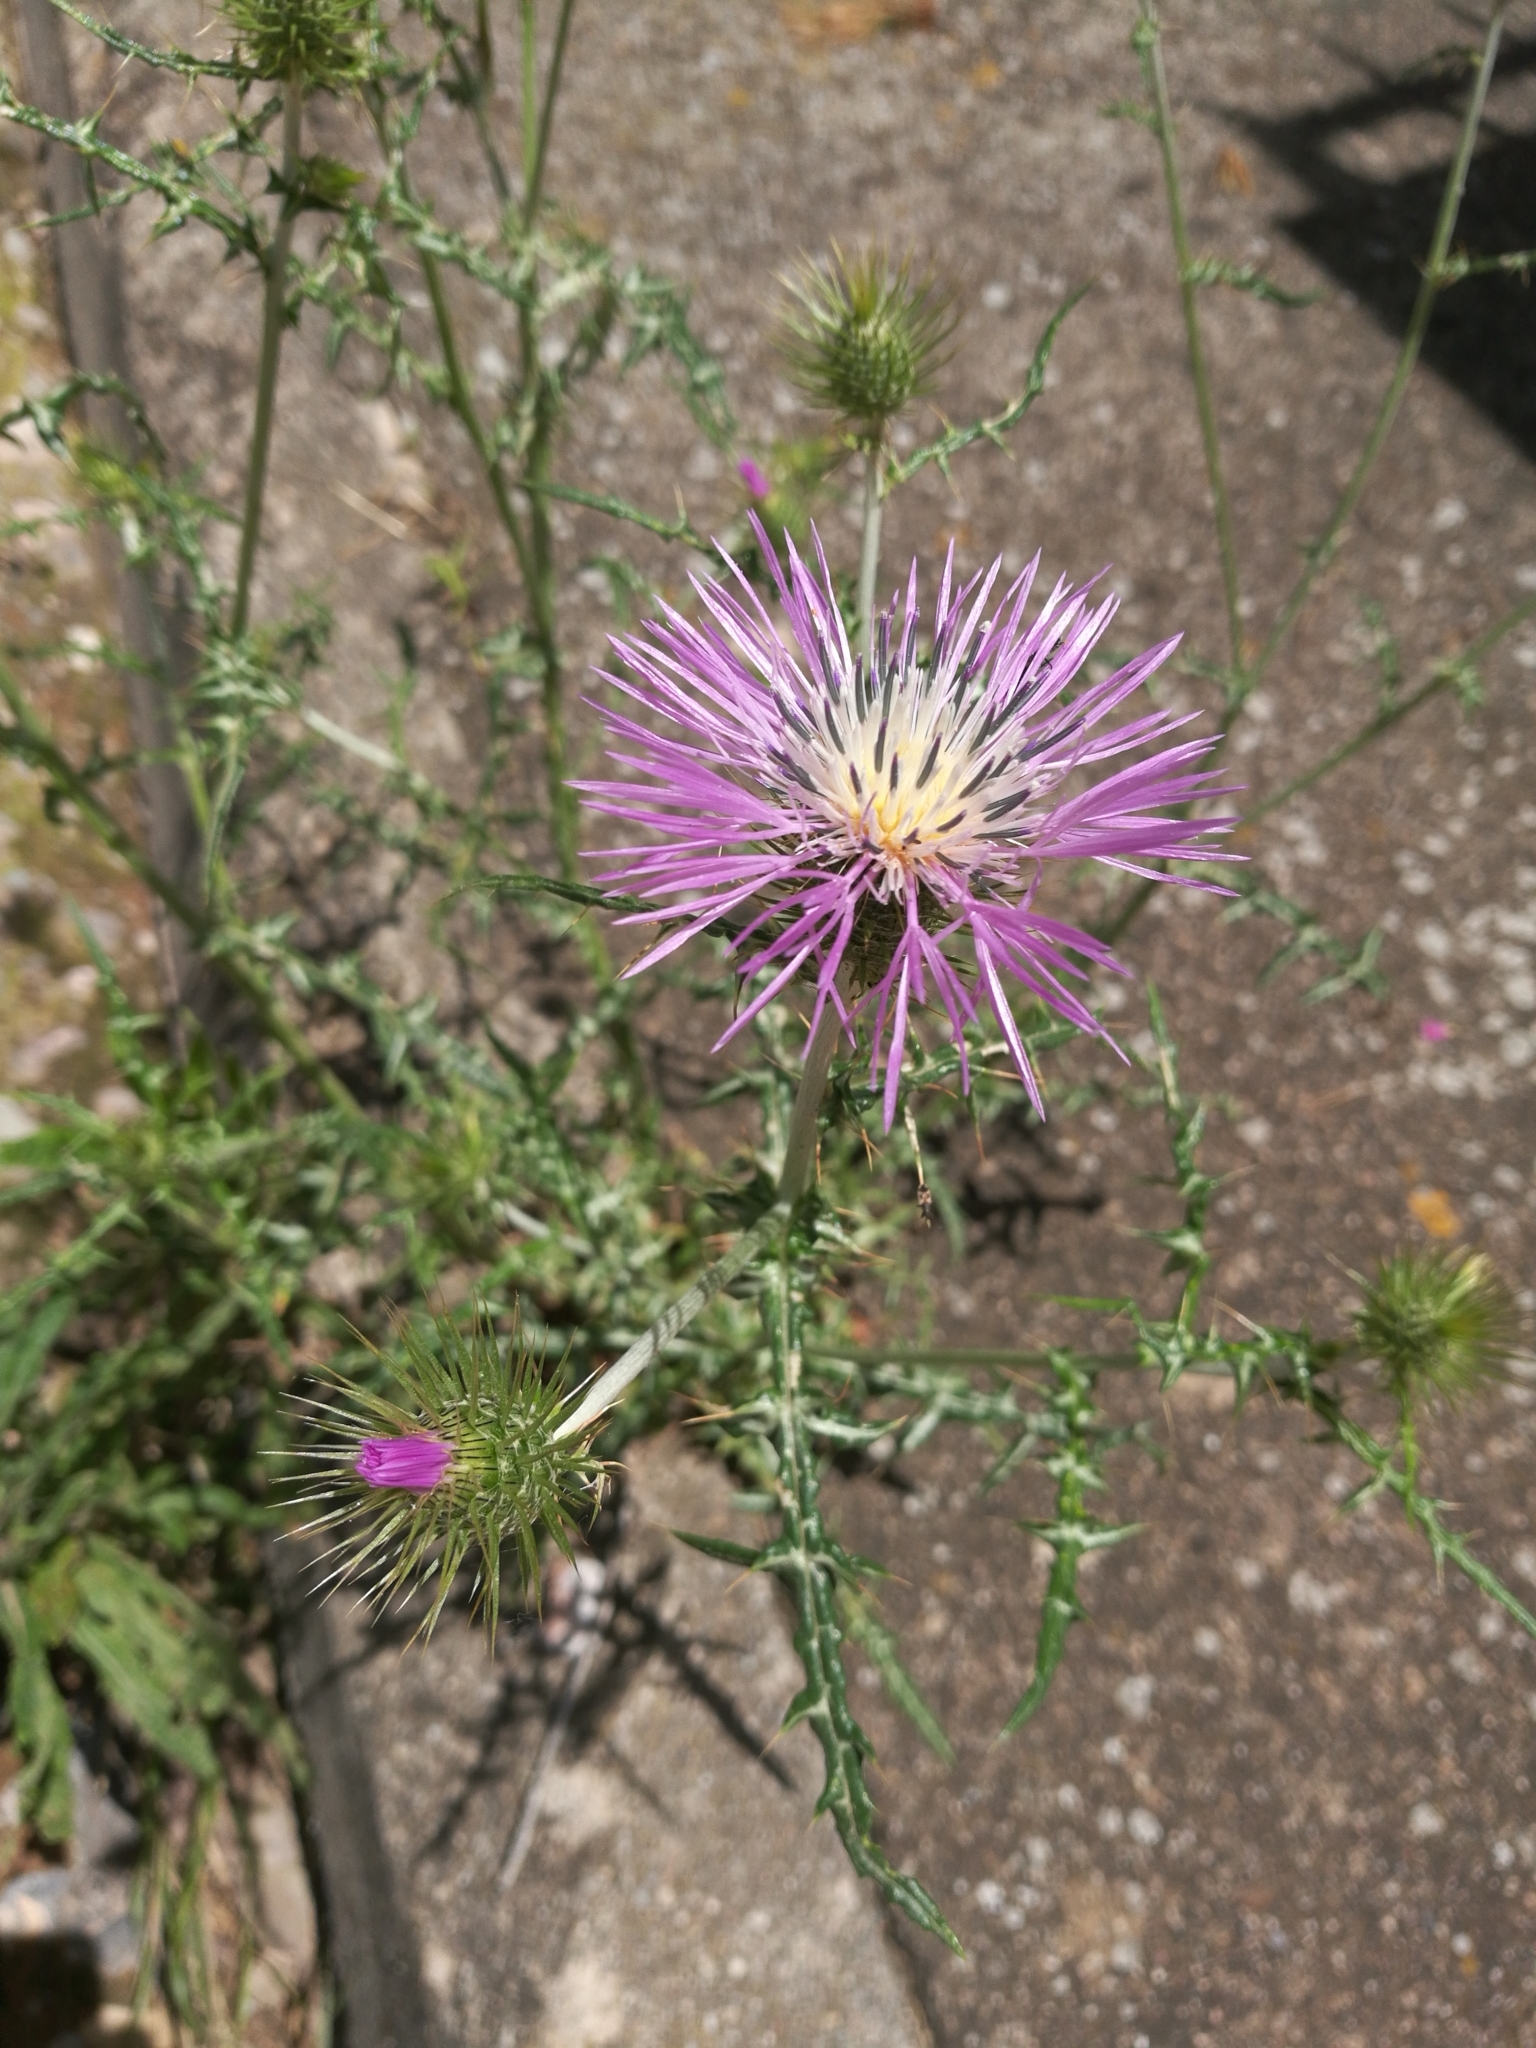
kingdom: Plantae
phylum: Tracheophyta
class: Magnoliopsida
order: Asterales
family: Asteraceae
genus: Galactites
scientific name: Galactites tomentosa
